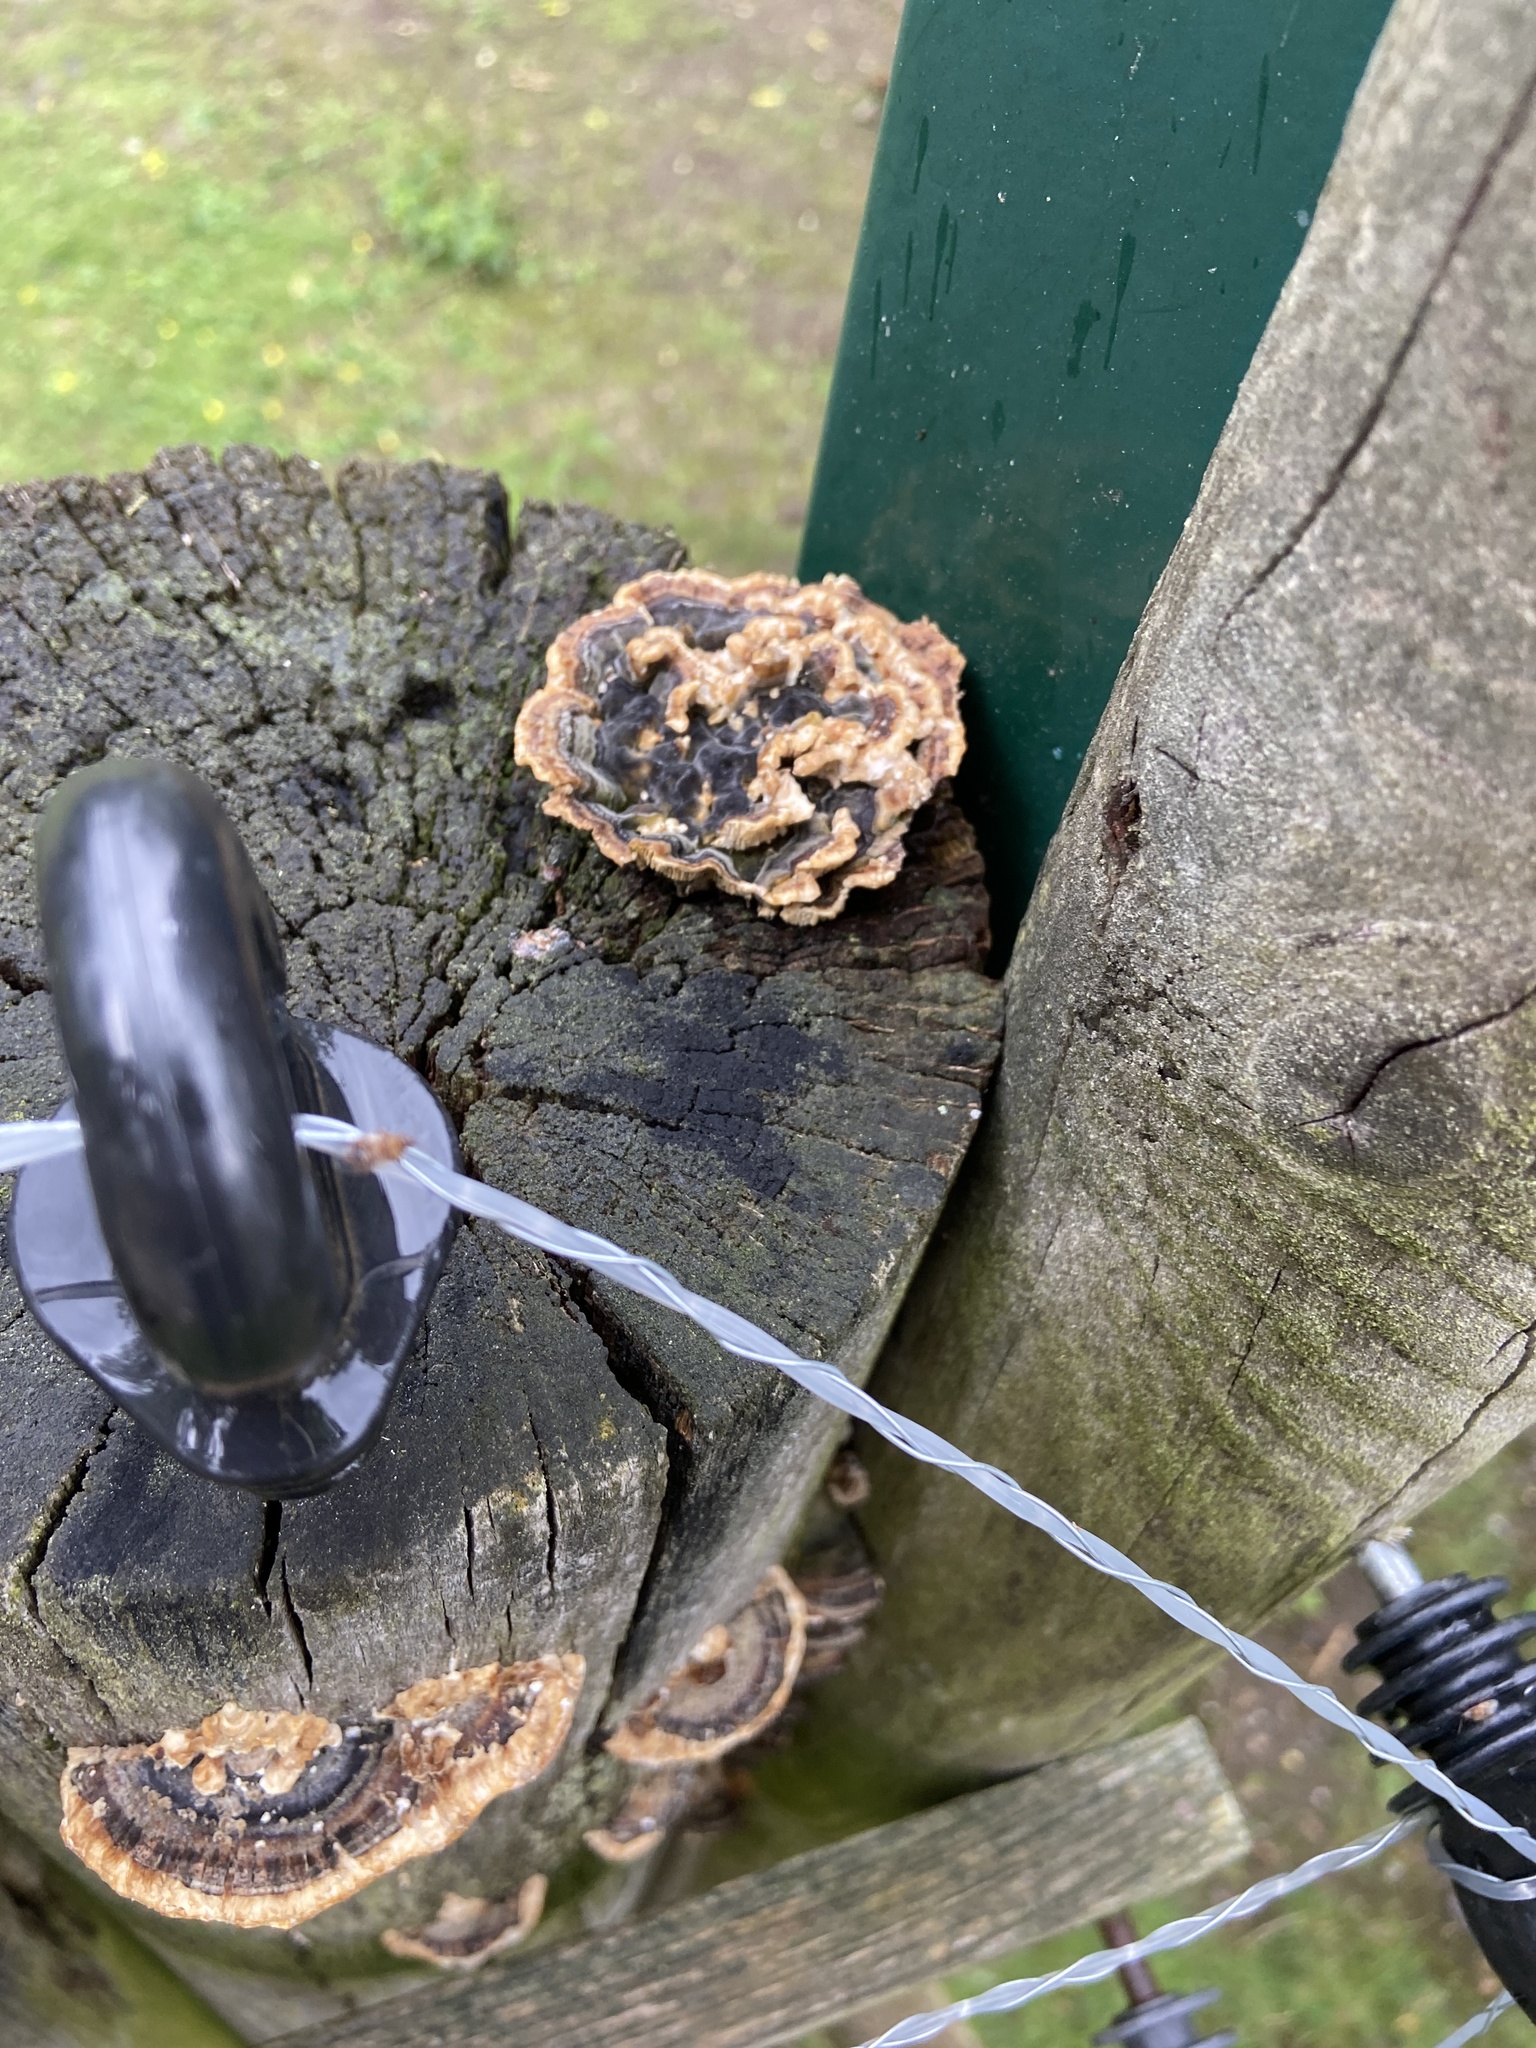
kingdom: Fungi
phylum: Basidiomycota
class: Agaricomycetes
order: Polyporales
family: Polyporaceae
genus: Trametes
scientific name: Trametes versicolor
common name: Turkeytail
